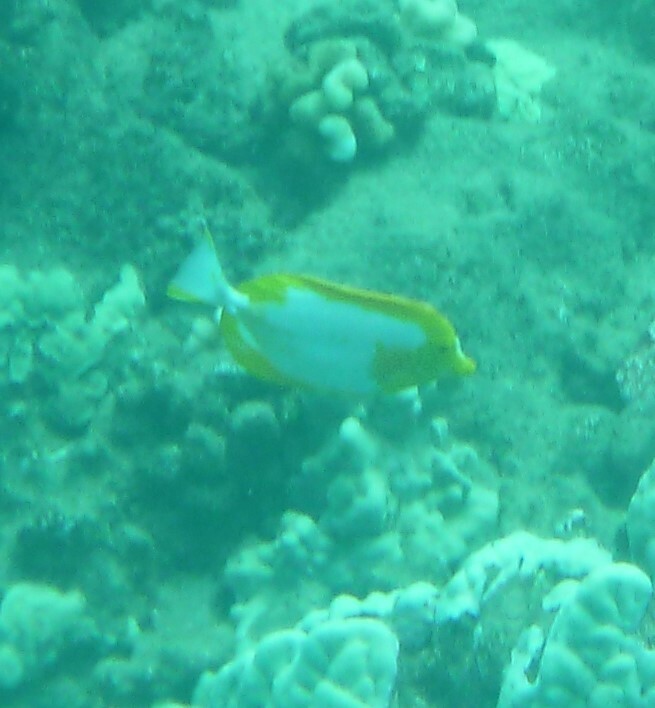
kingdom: Animalia
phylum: Chordata
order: Perciformes
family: Acanthuridae
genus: Zebrasoma
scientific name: Zebrasoma flavescens
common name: Yellow tang
